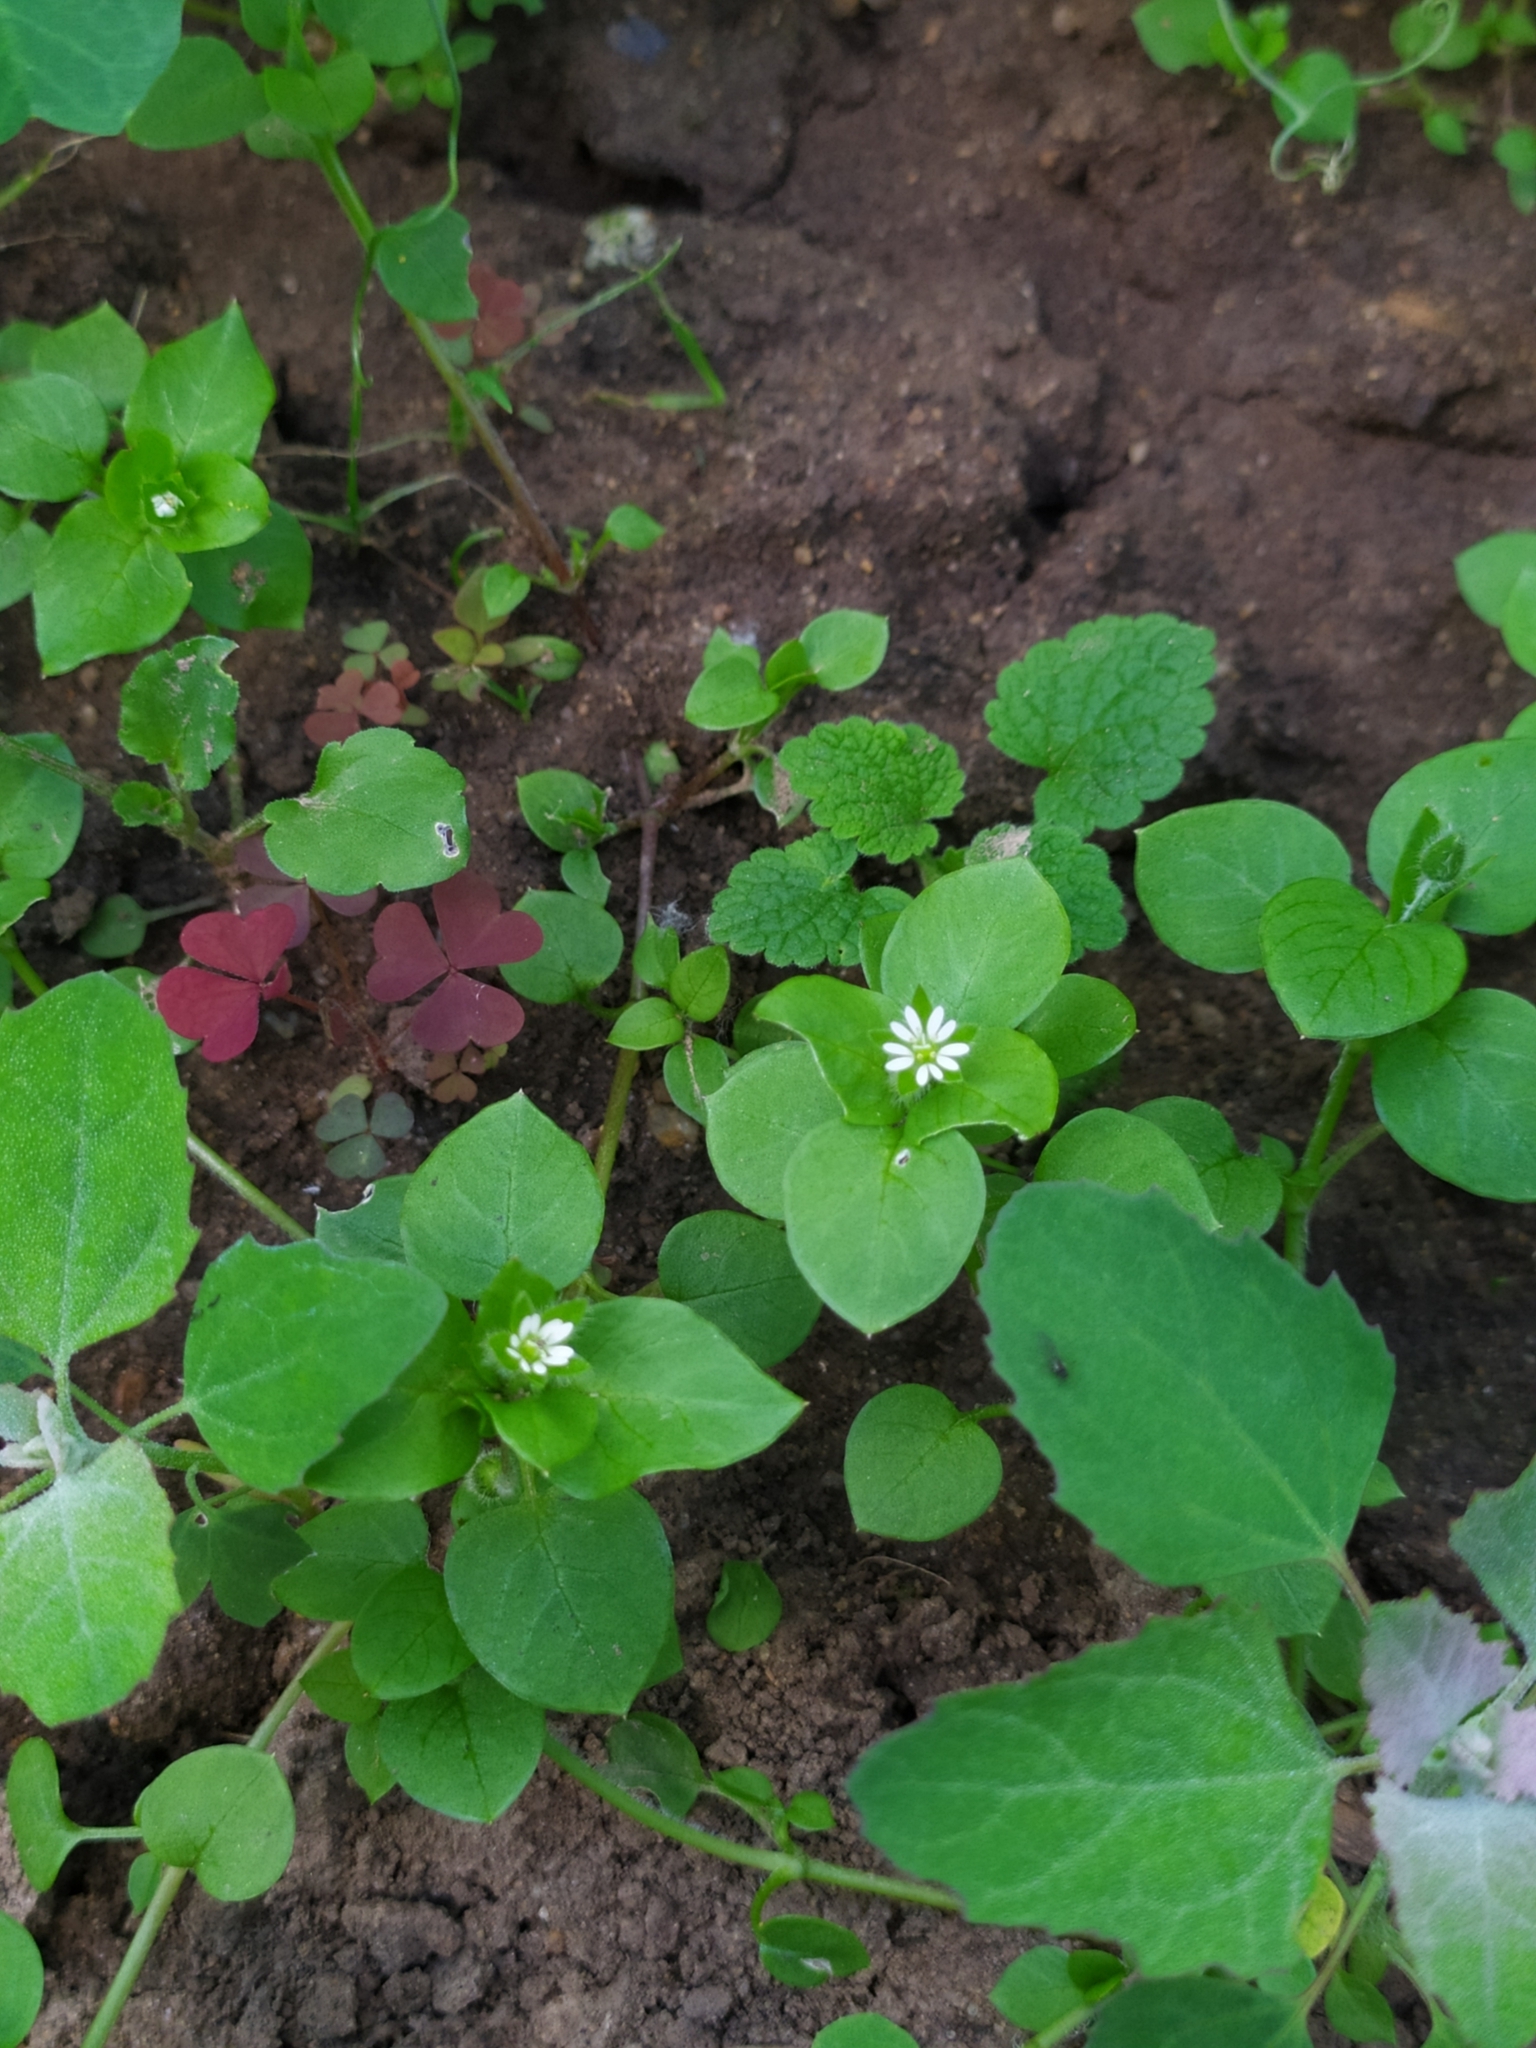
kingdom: Plantae
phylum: Tracheophyta
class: Magnoliopsida
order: Caryophyllales
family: Caryophyllaceae
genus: Stellaria
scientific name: Stellaria media
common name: Common chickweed
